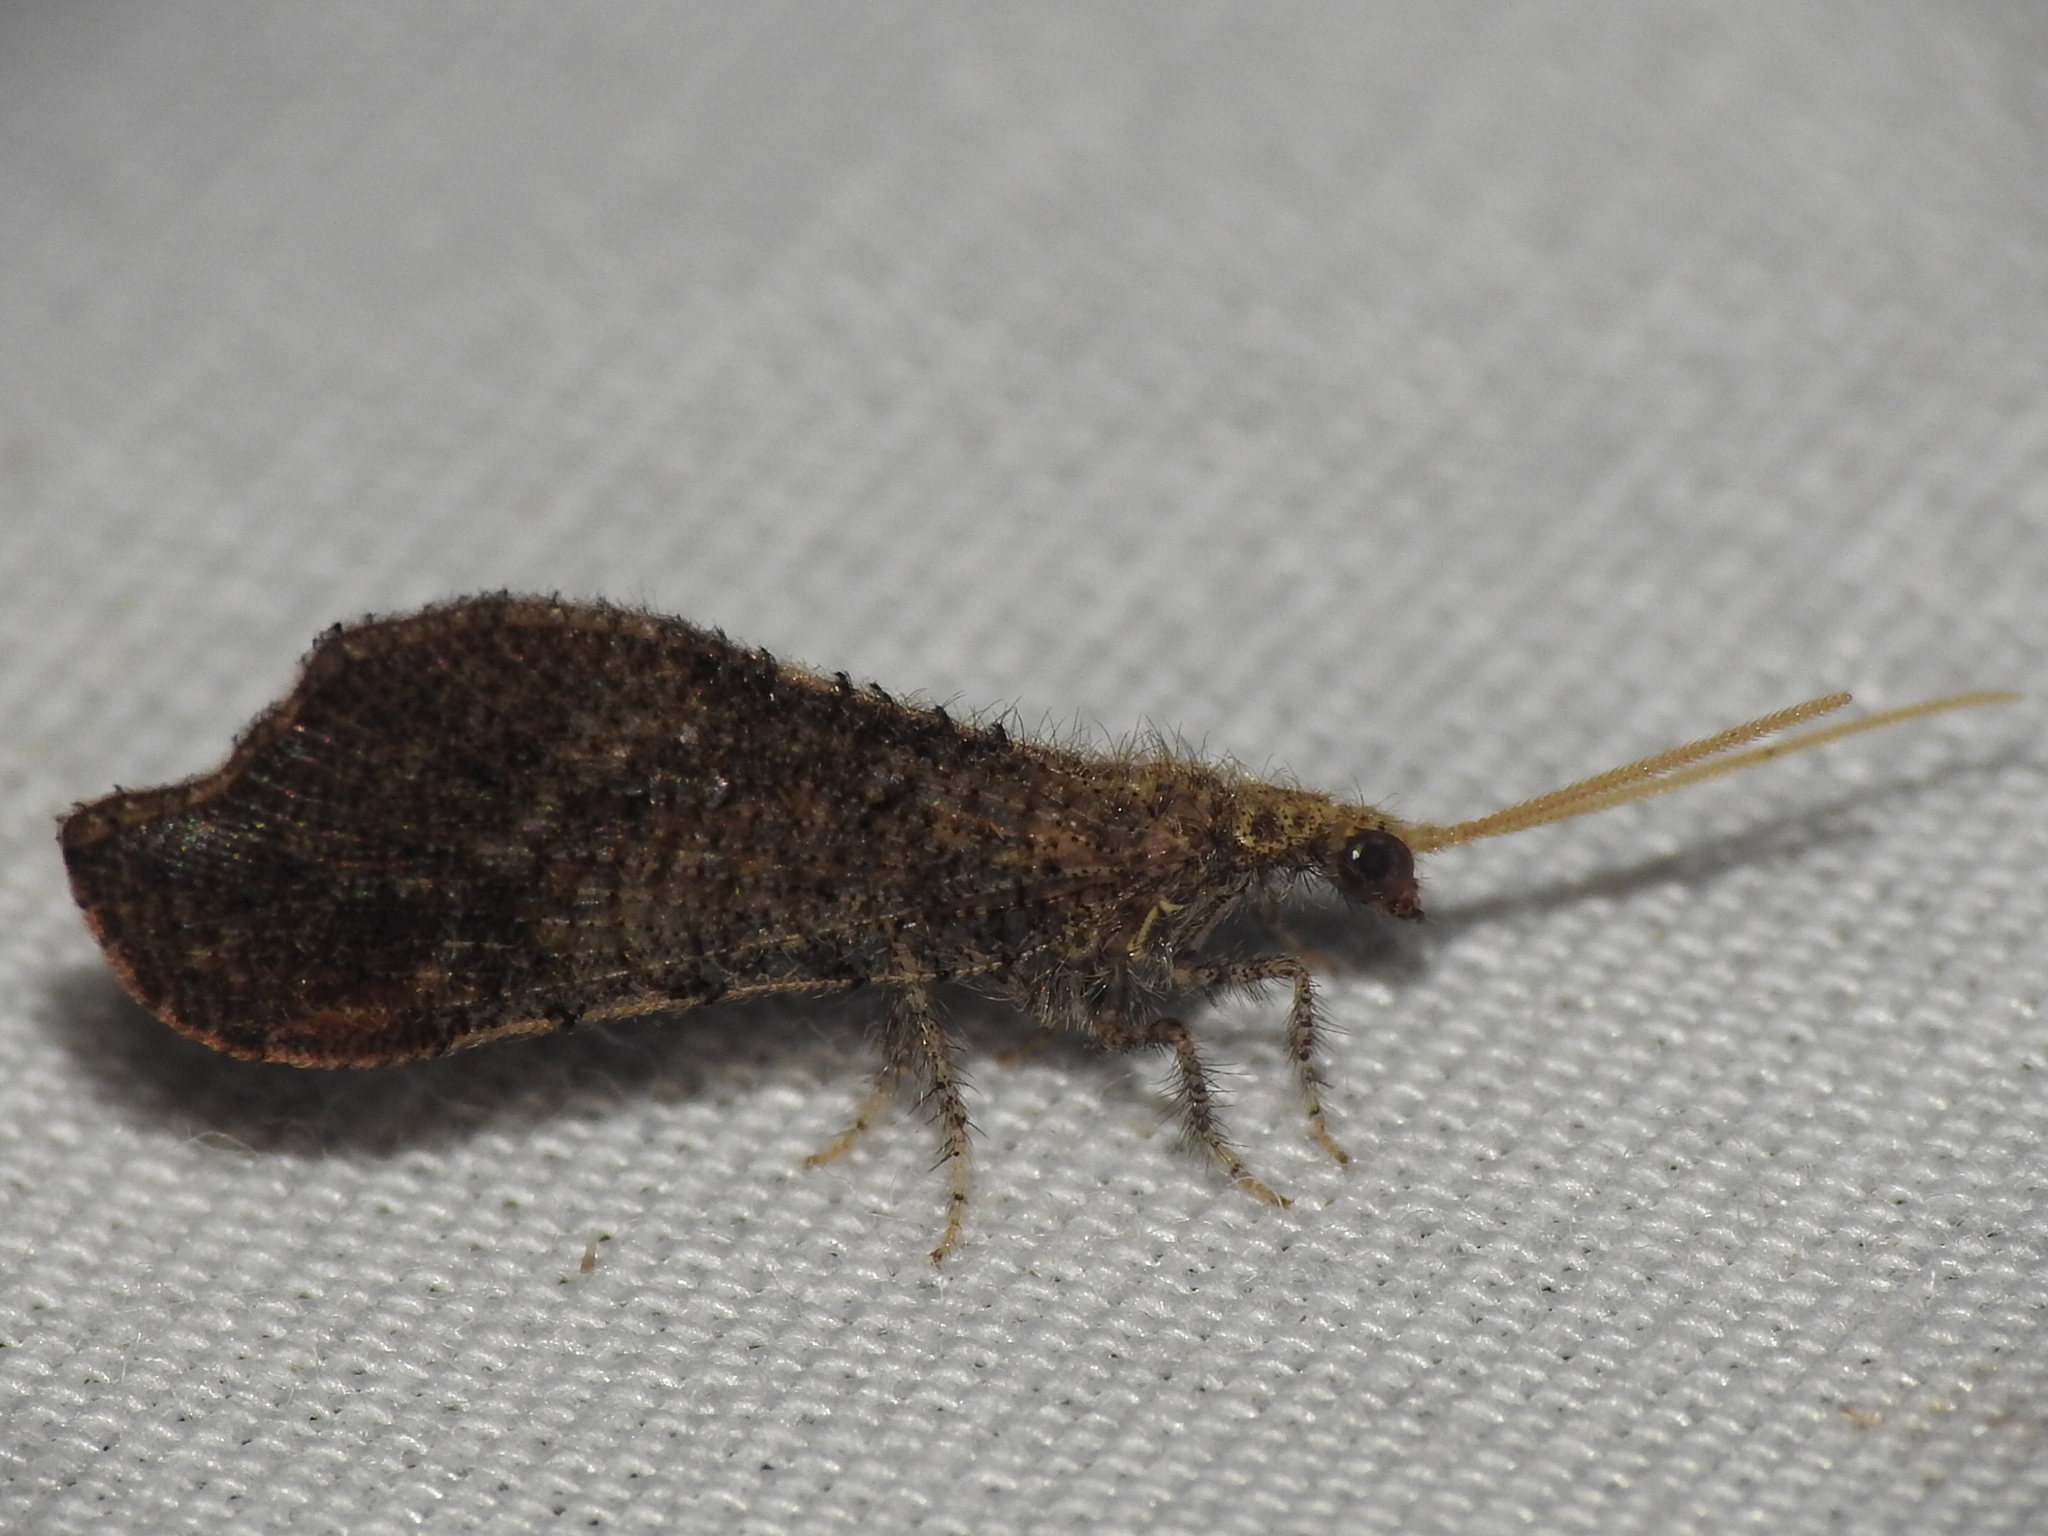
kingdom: Animalia
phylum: Arthropoda
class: Insecta
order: Neuroptera
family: Berothidae
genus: Lomamyia
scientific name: Lomamyia squamosa
